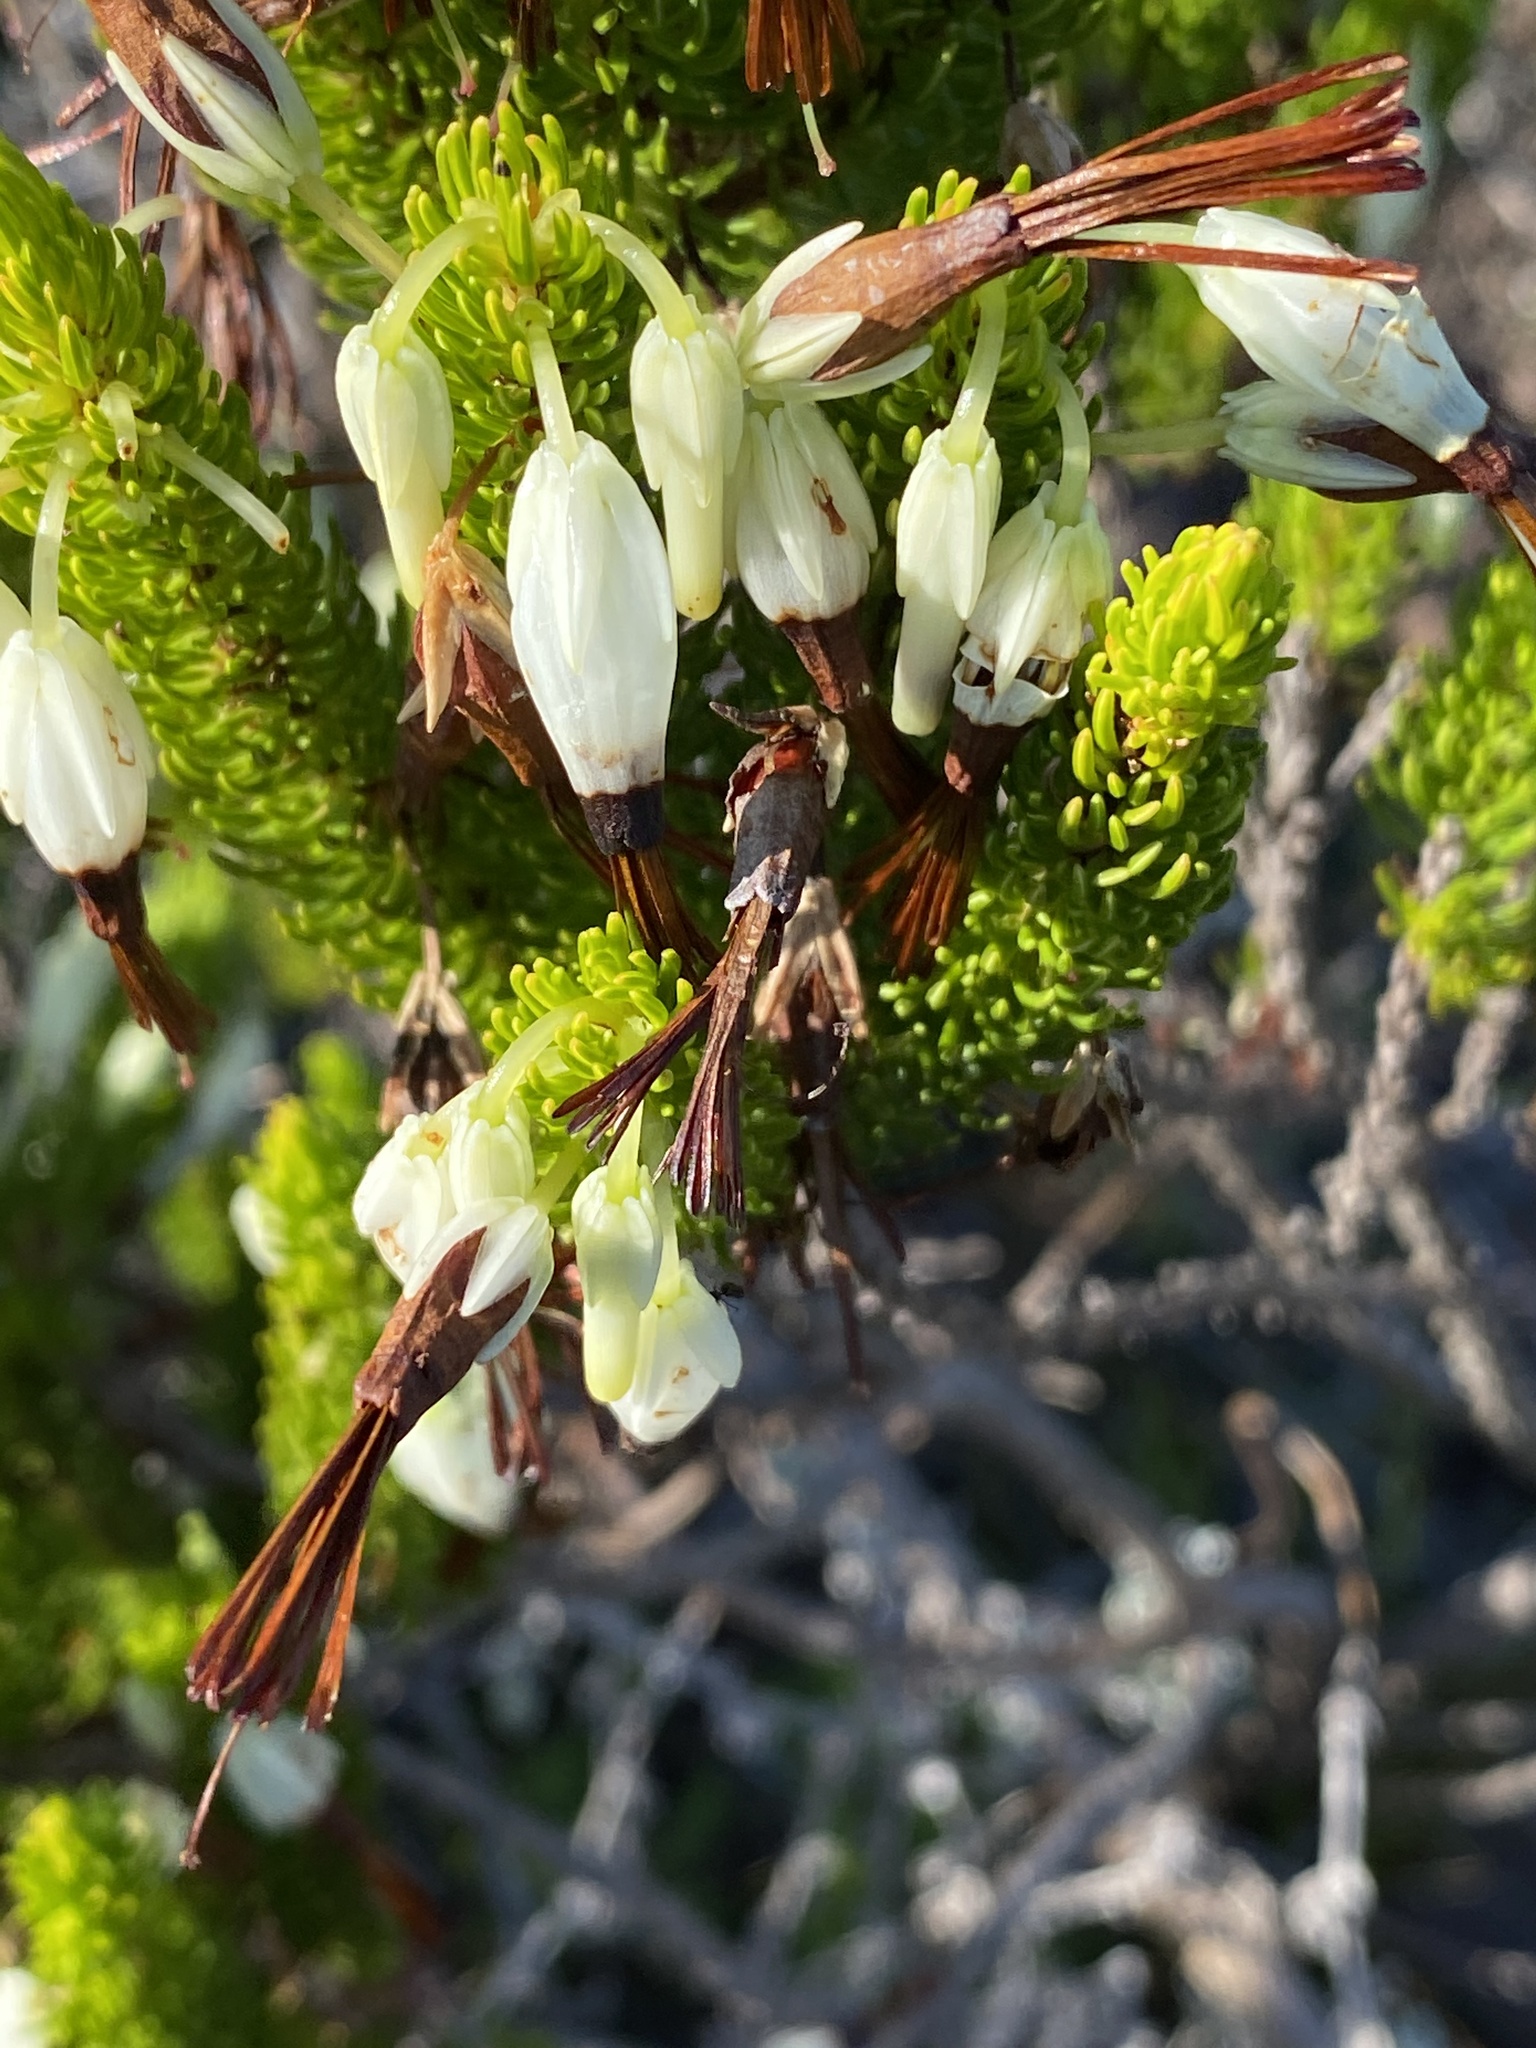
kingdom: Plantae
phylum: Tracheophyta
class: Magnoliopsida
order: Ericales
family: Ericaceae
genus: Erica
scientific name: Erica plukenetii
